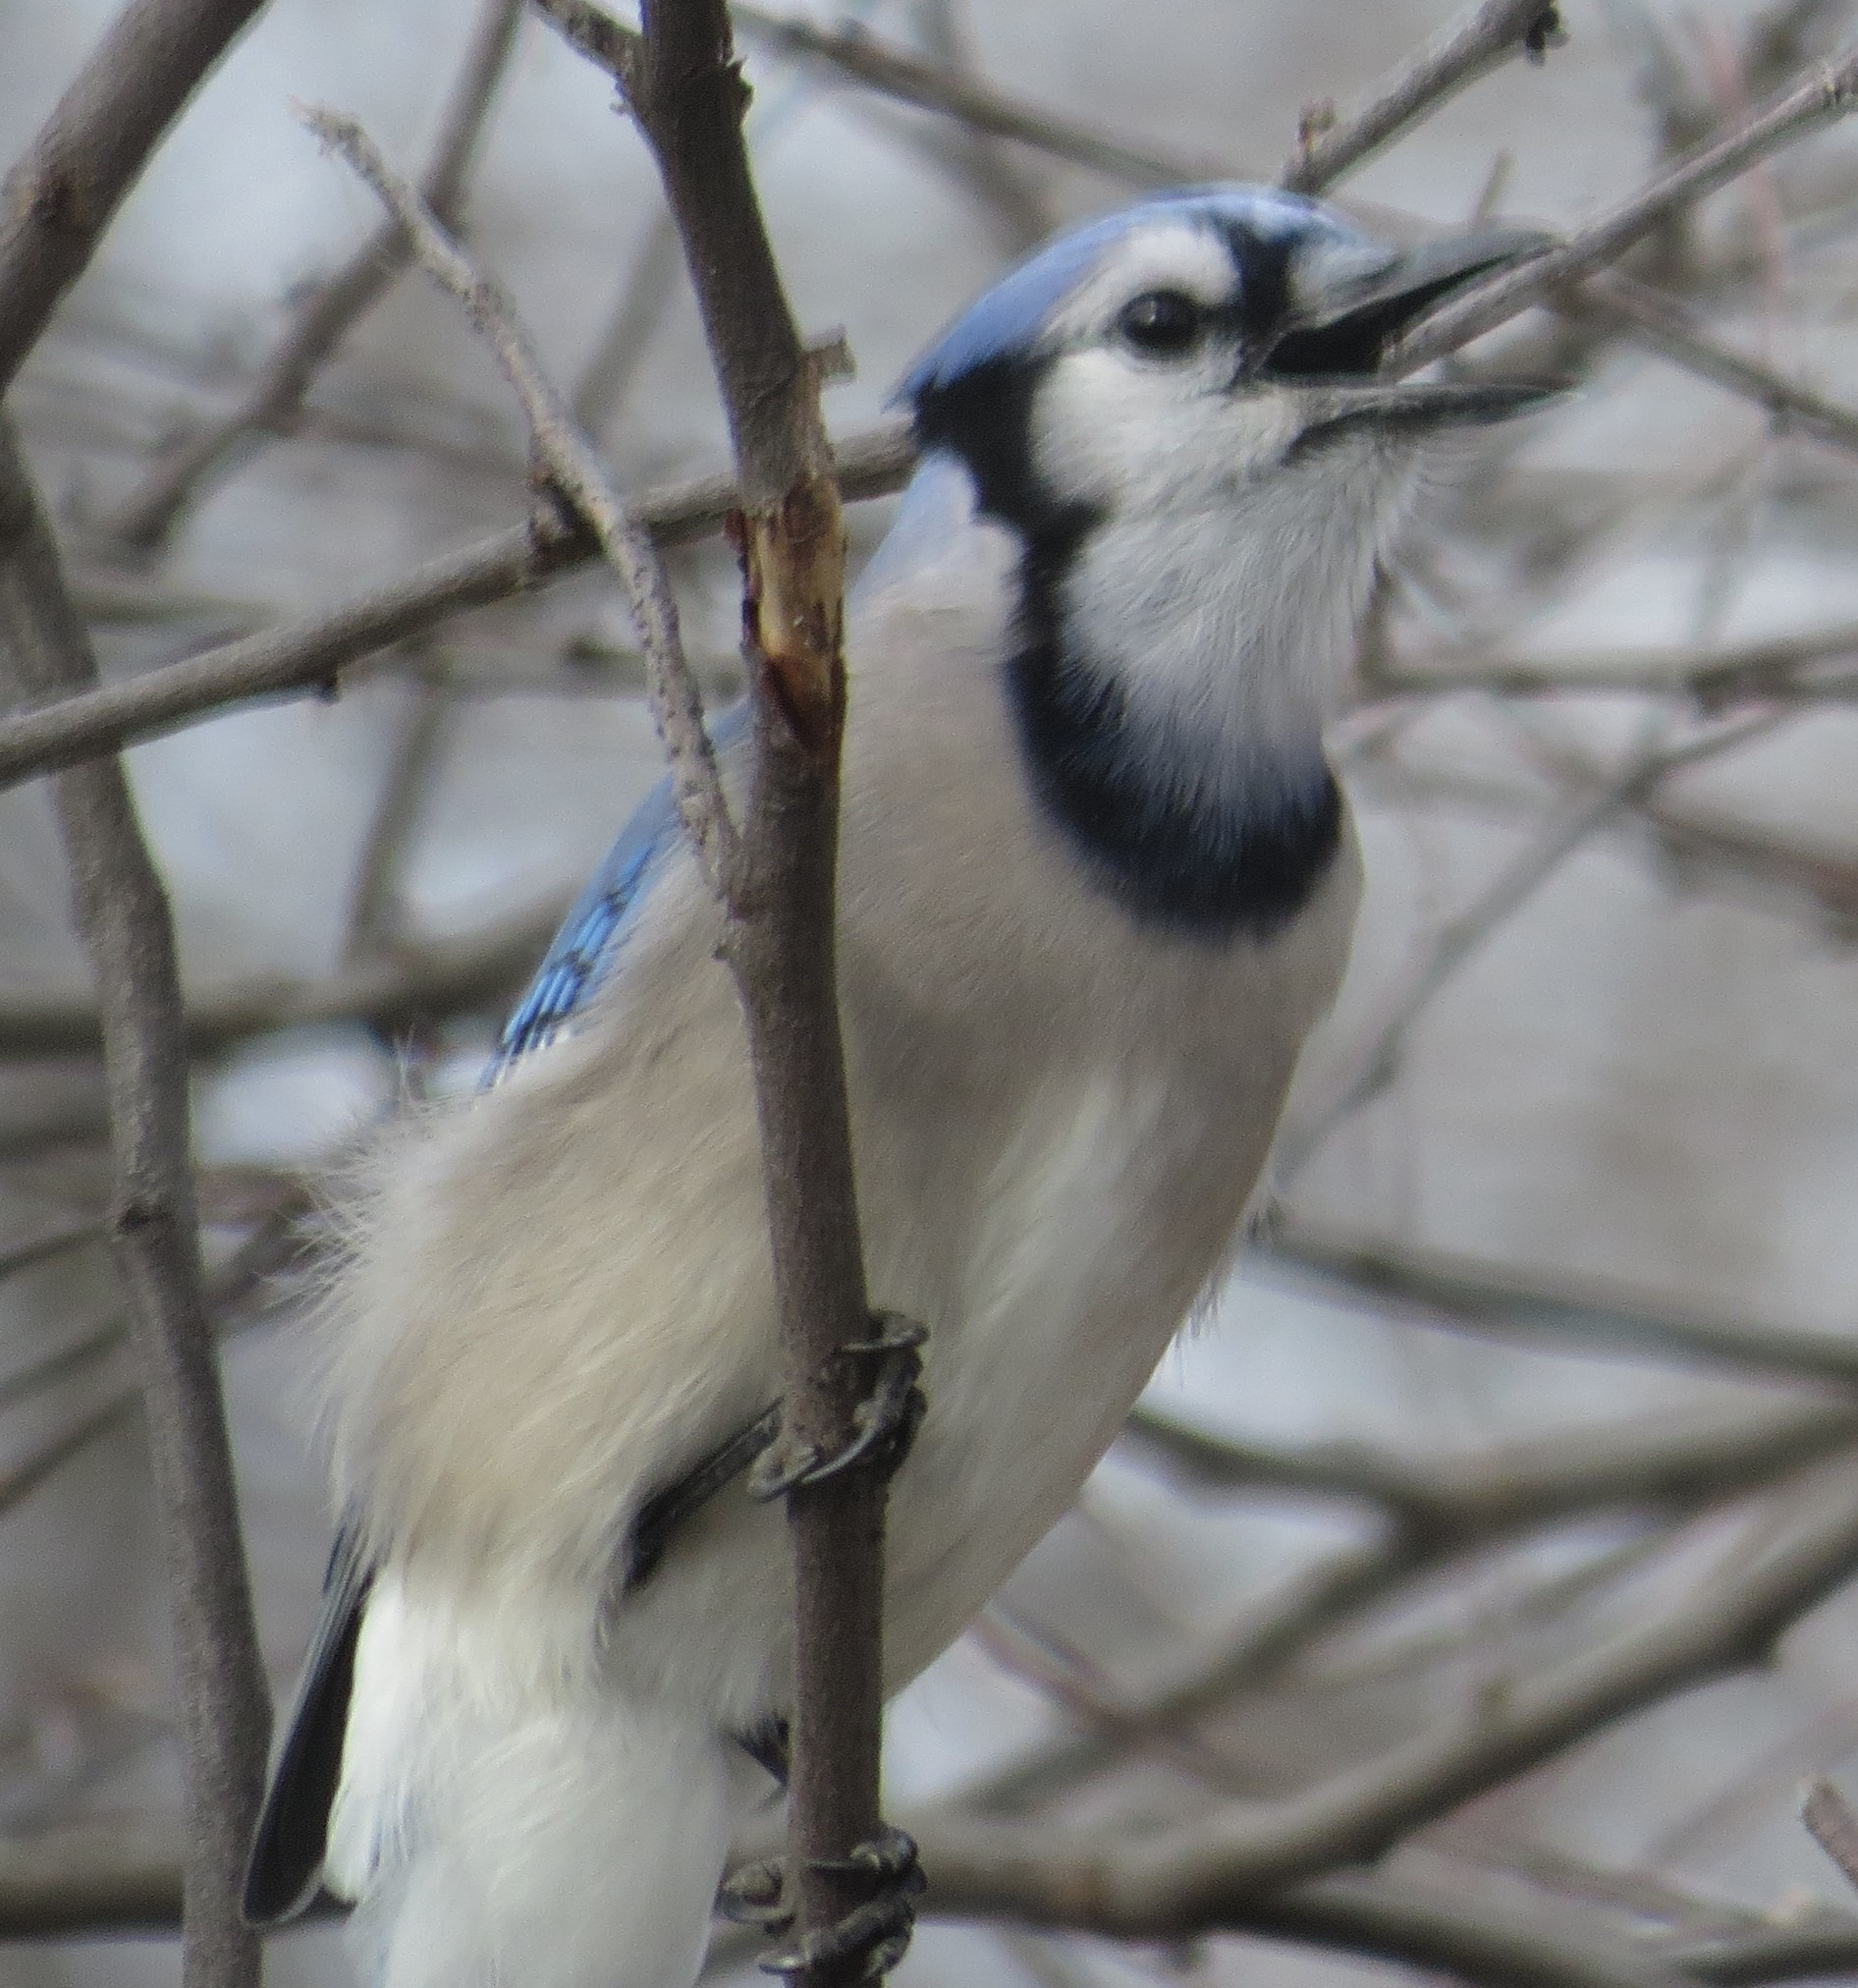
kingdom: Animalia
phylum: Chordata
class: Aves
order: Passeriformes
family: Corvidae
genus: Cyanocitta
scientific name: Cyanocitta cristata
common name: Blue jay
